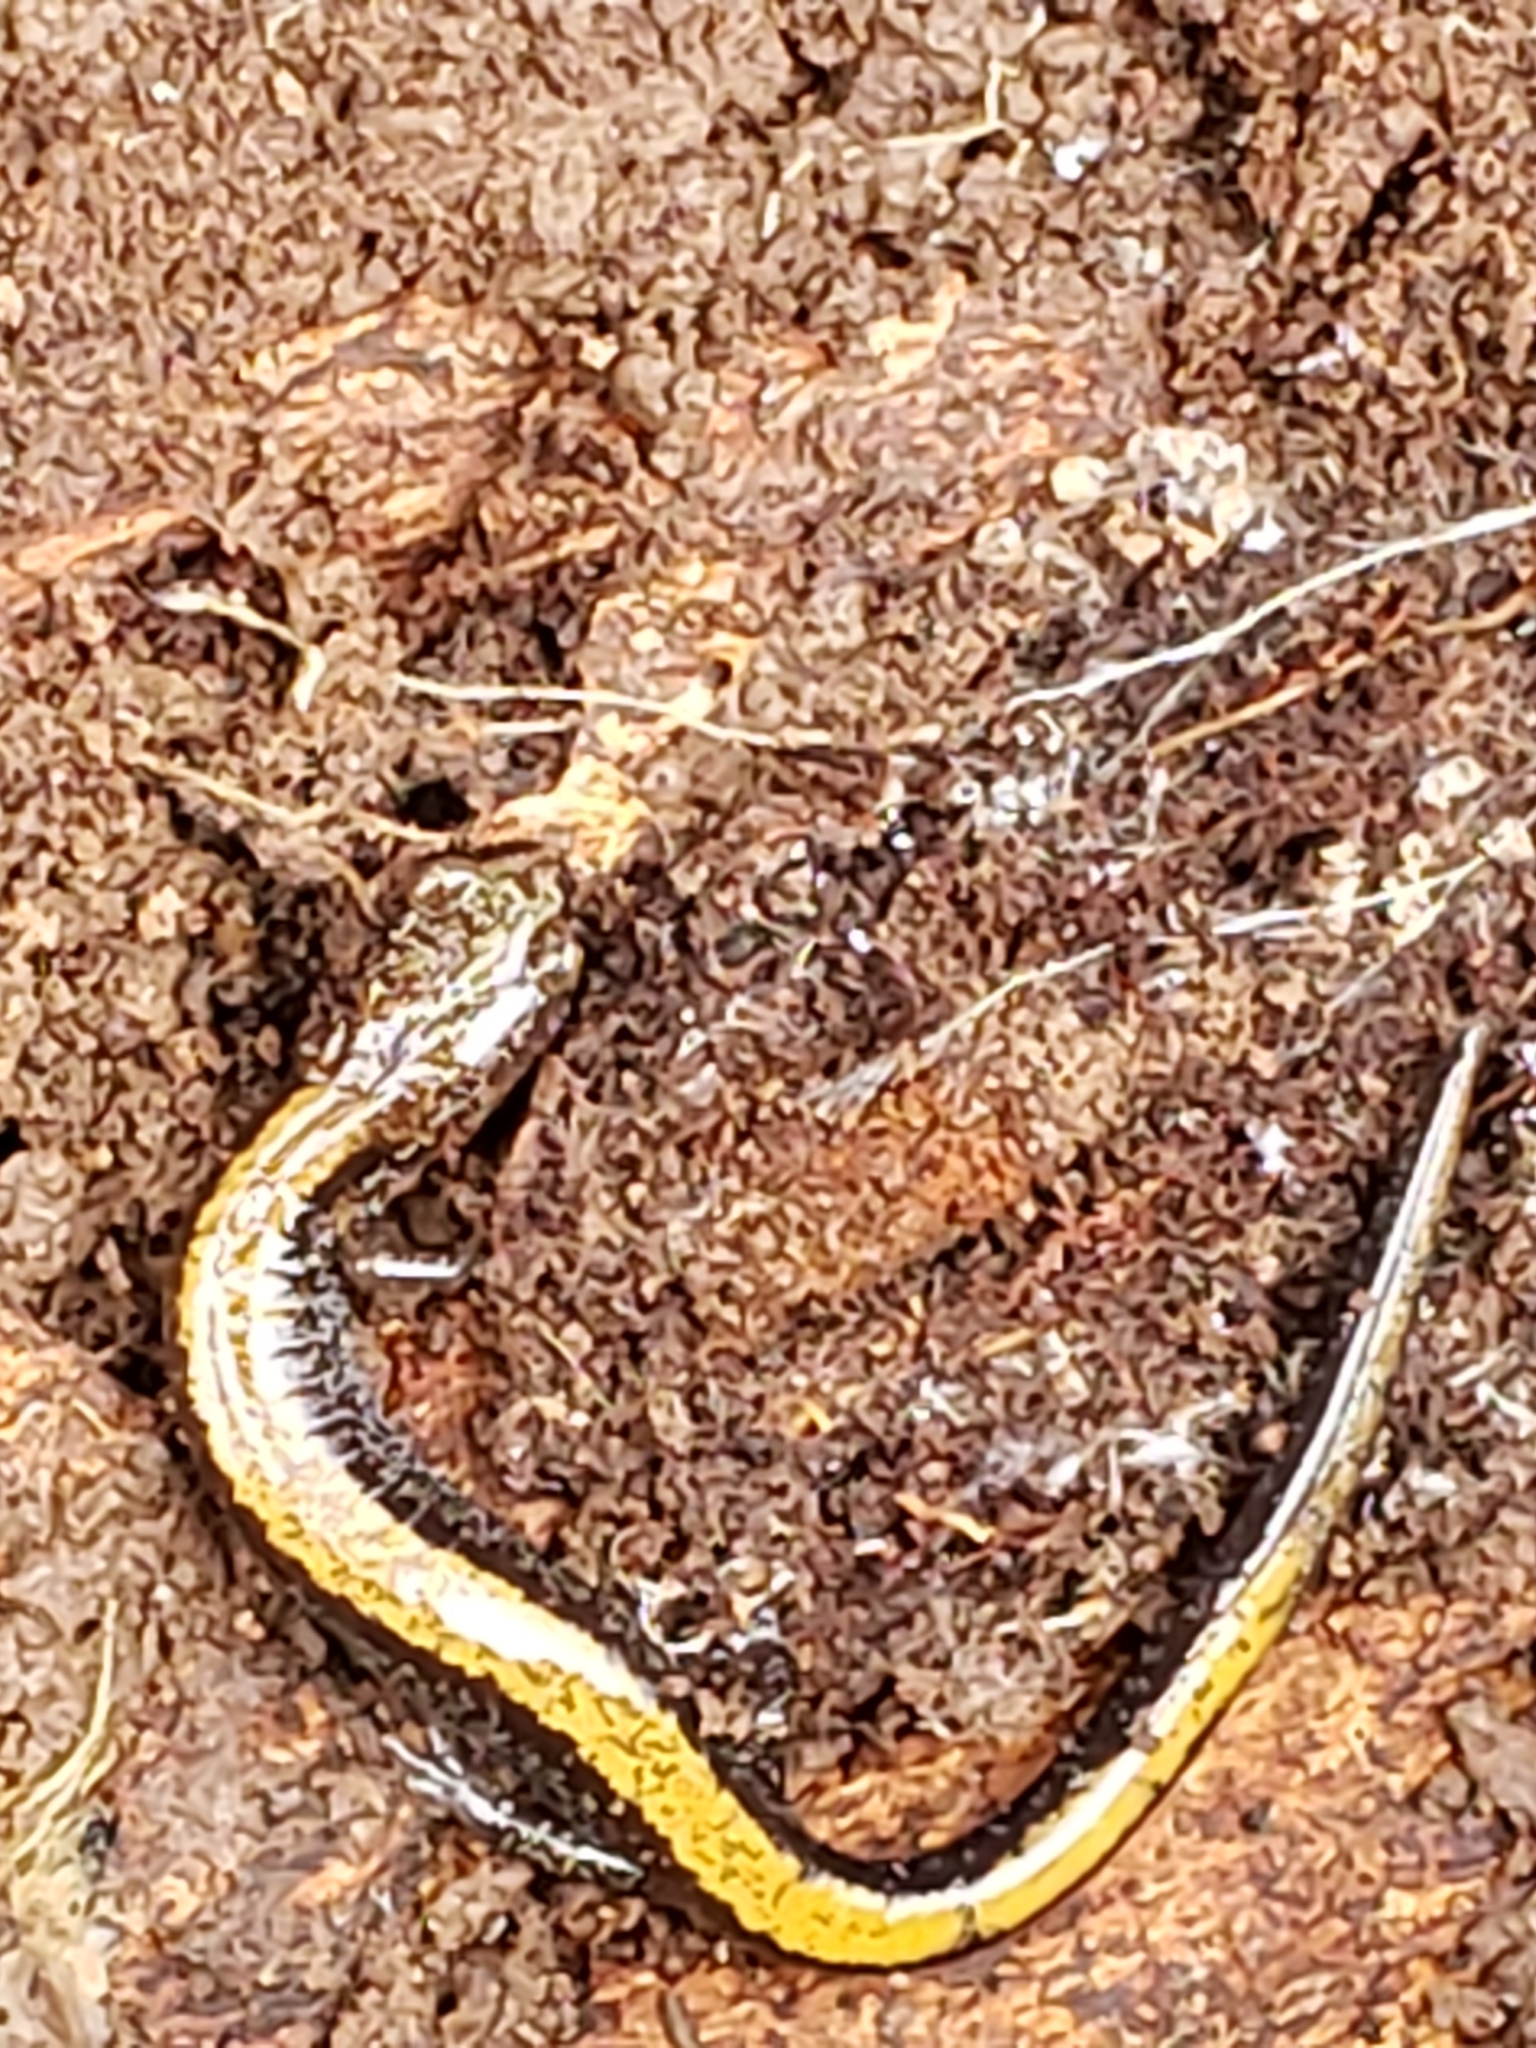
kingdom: Animalia
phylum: Chordata
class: Amphibia
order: Caudata
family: Plethodontidae
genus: Plethodon
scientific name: Plethodon cinereus
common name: Redback salamander
